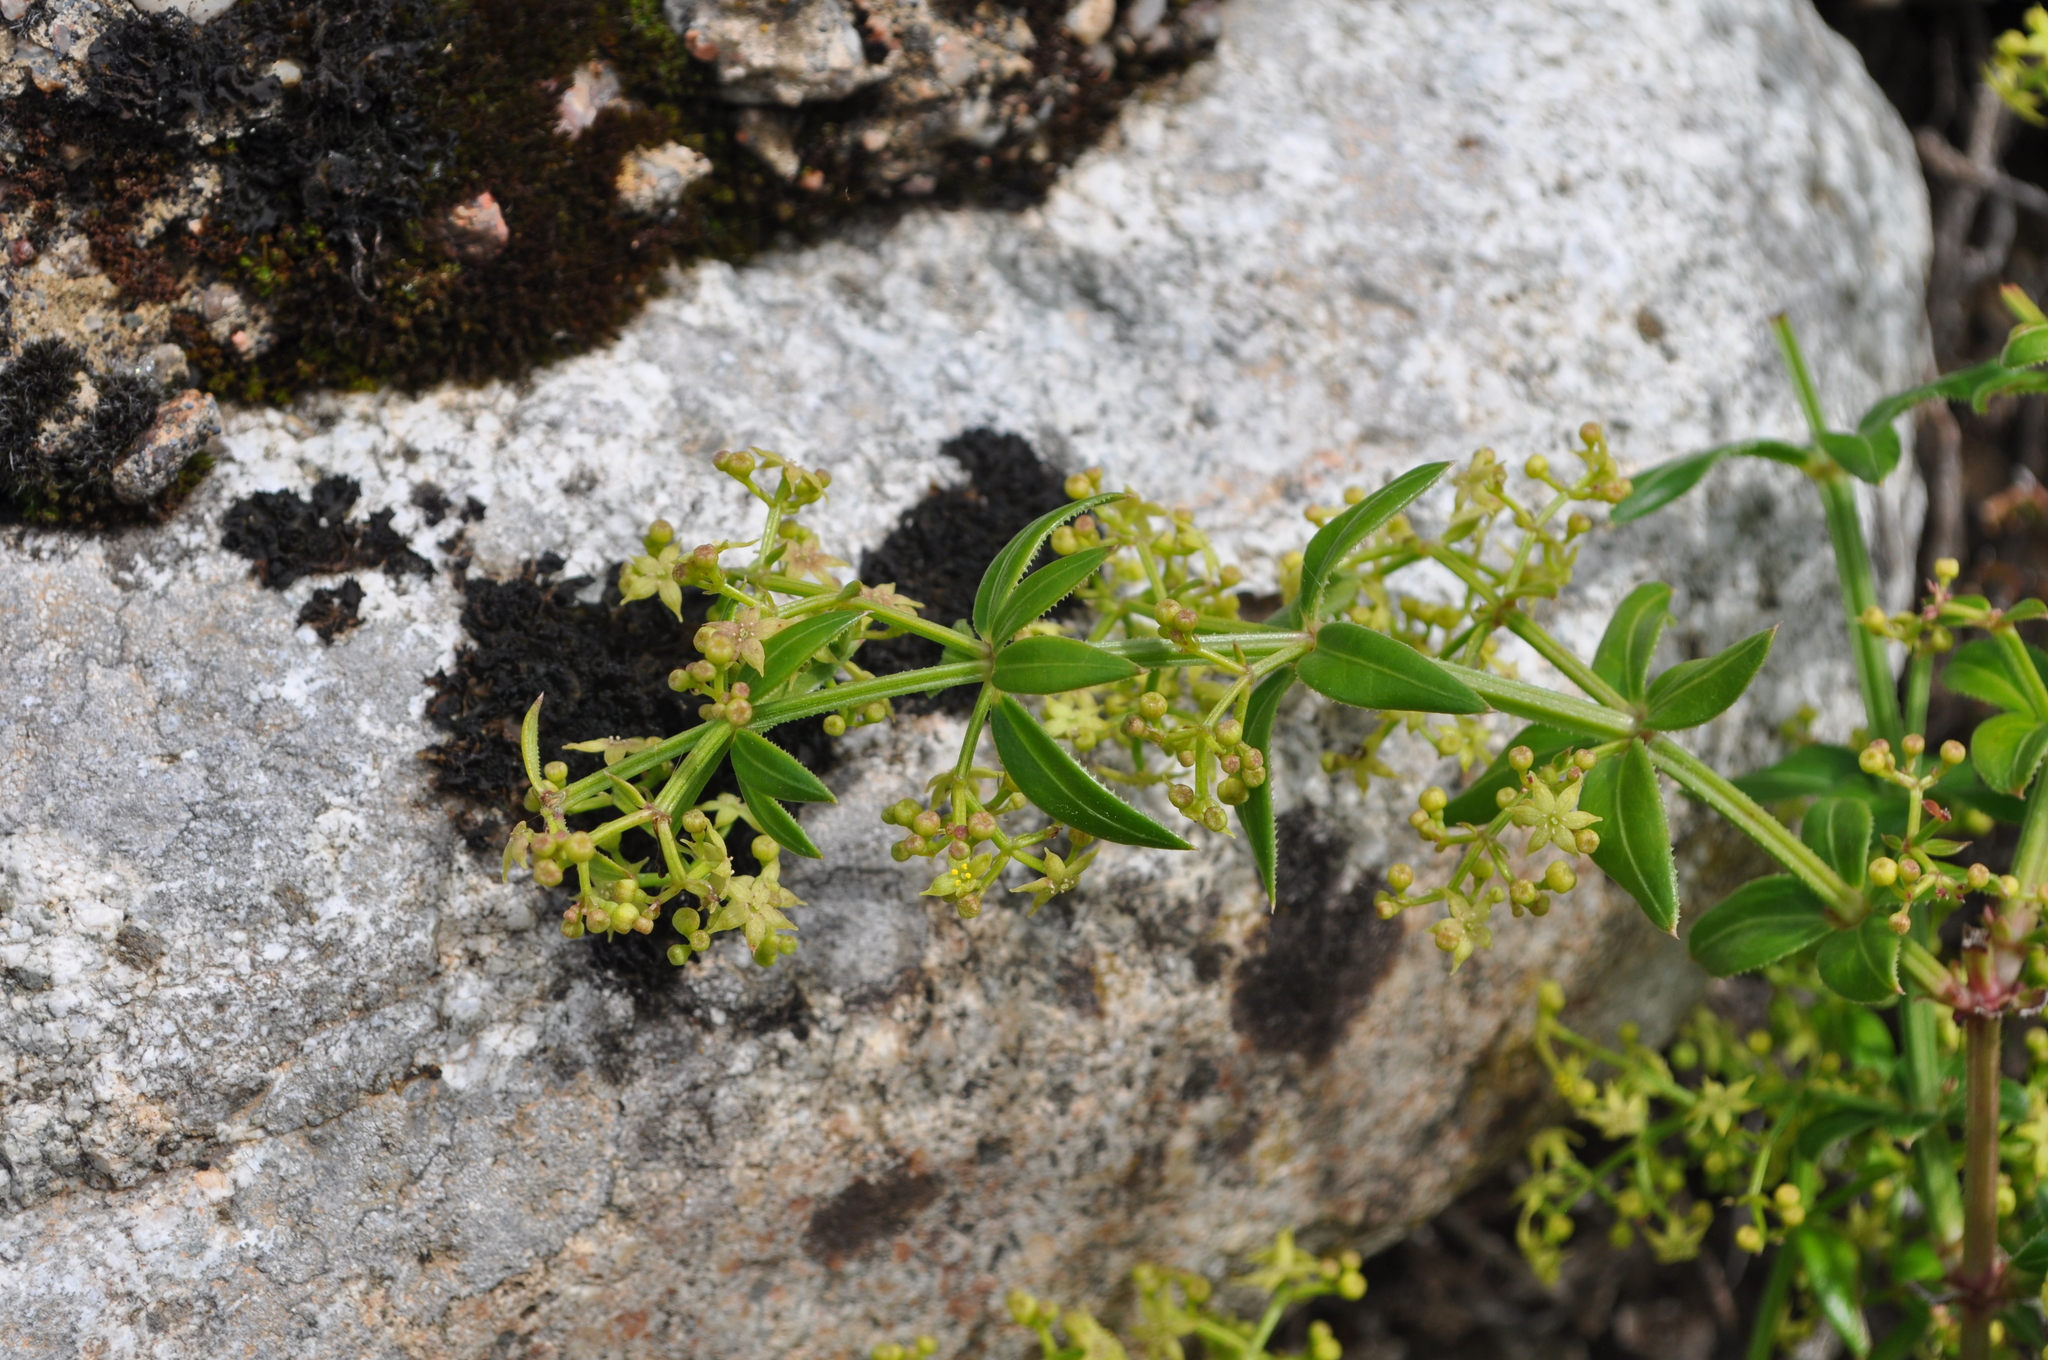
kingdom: Plantae
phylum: Tracheophyta
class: Magnoliopsida
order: Gentianales
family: Rubiaceae
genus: Rubia
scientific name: Rubia peregrina
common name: Wild madder
